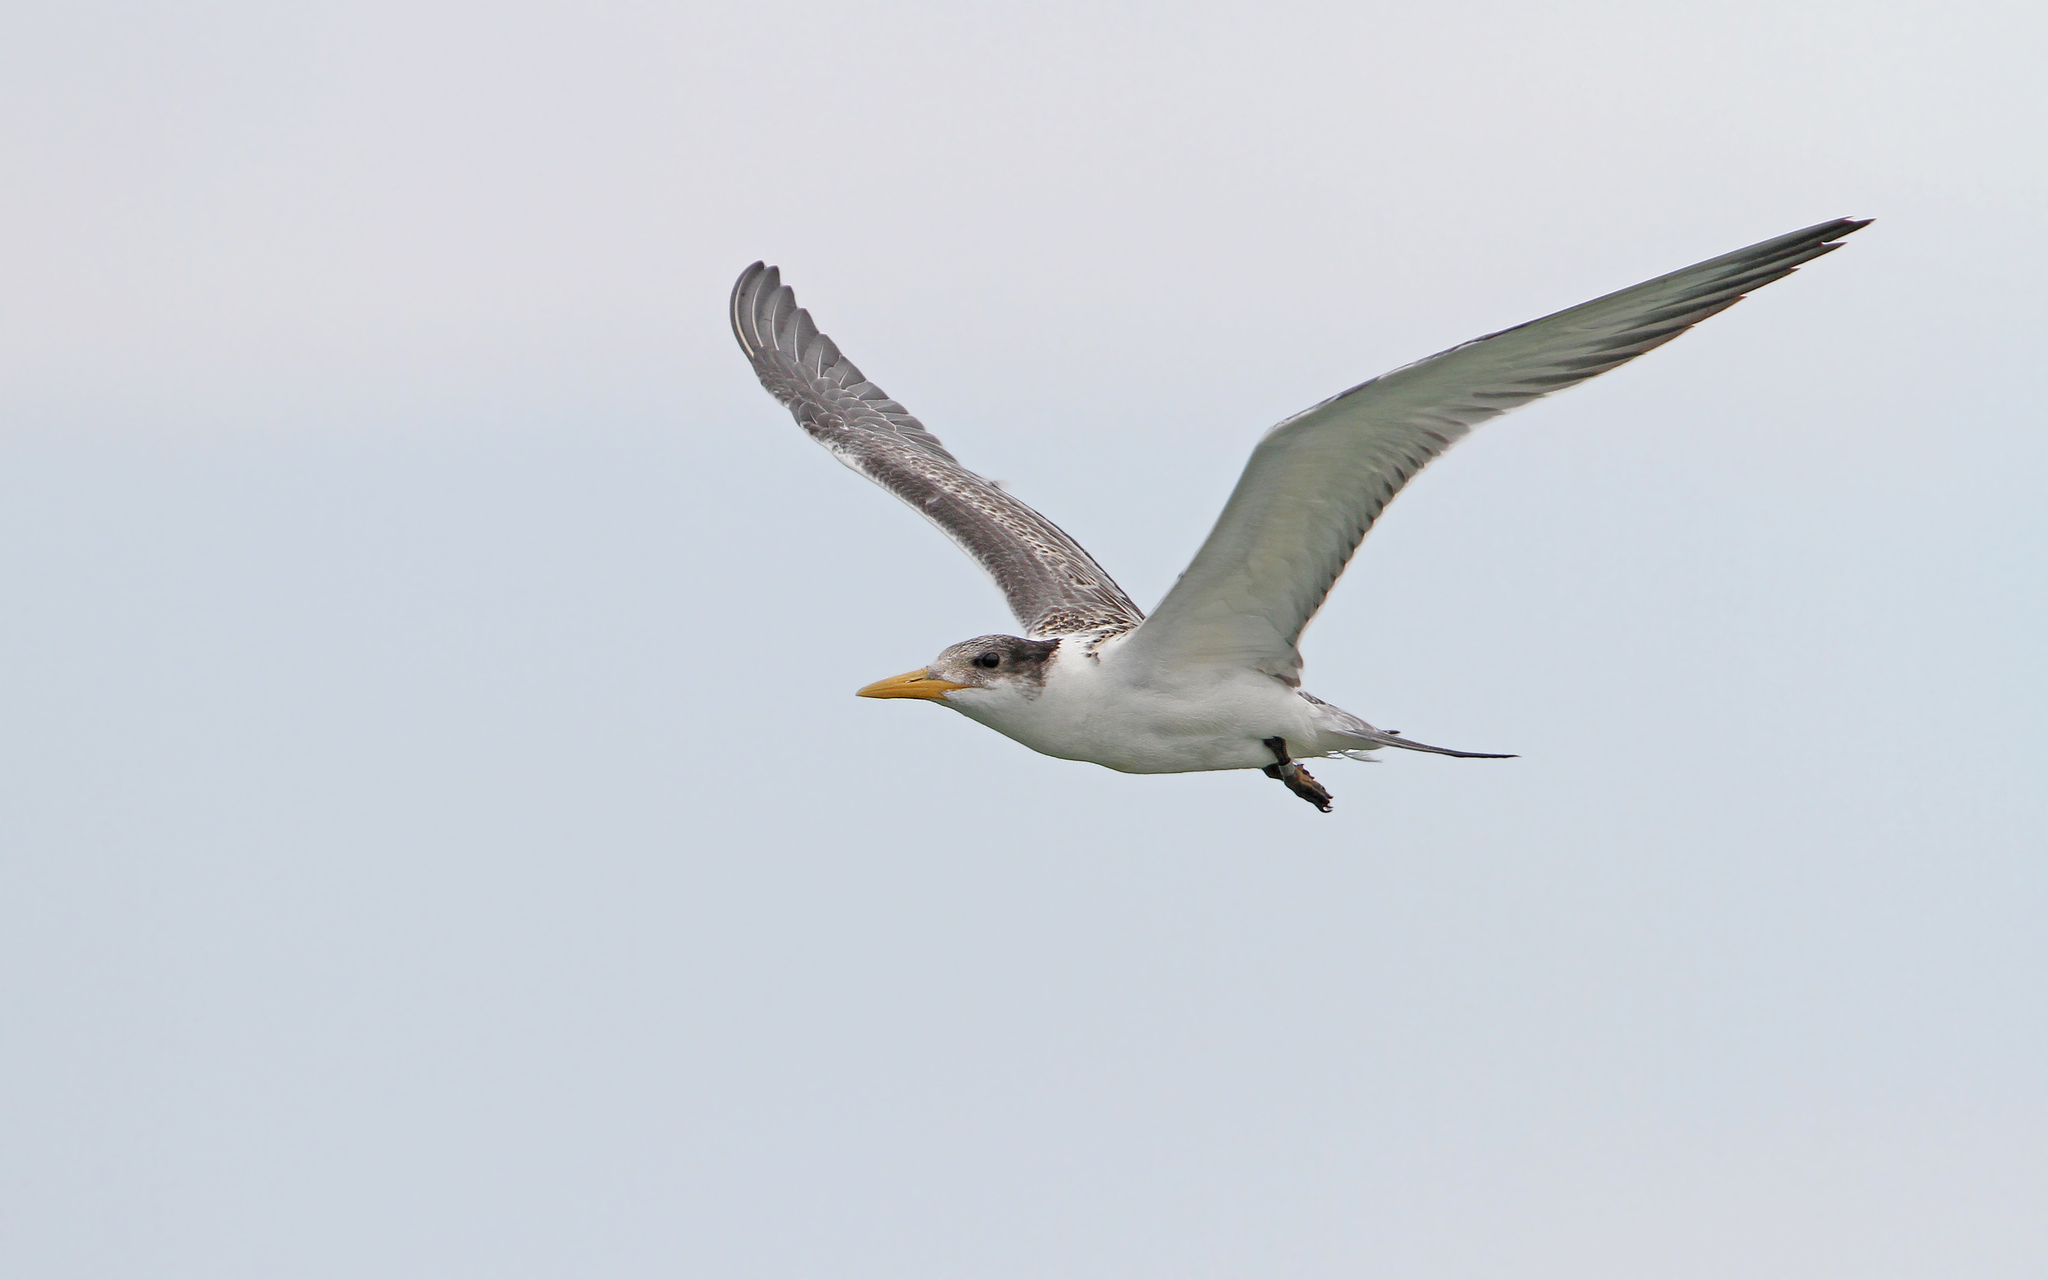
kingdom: Animalia
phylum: Chordata
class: Aves
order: Charadriiformes
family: Laridae
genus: Thalasseus
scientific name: Thalasseus bergii
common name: Greater crested tern
